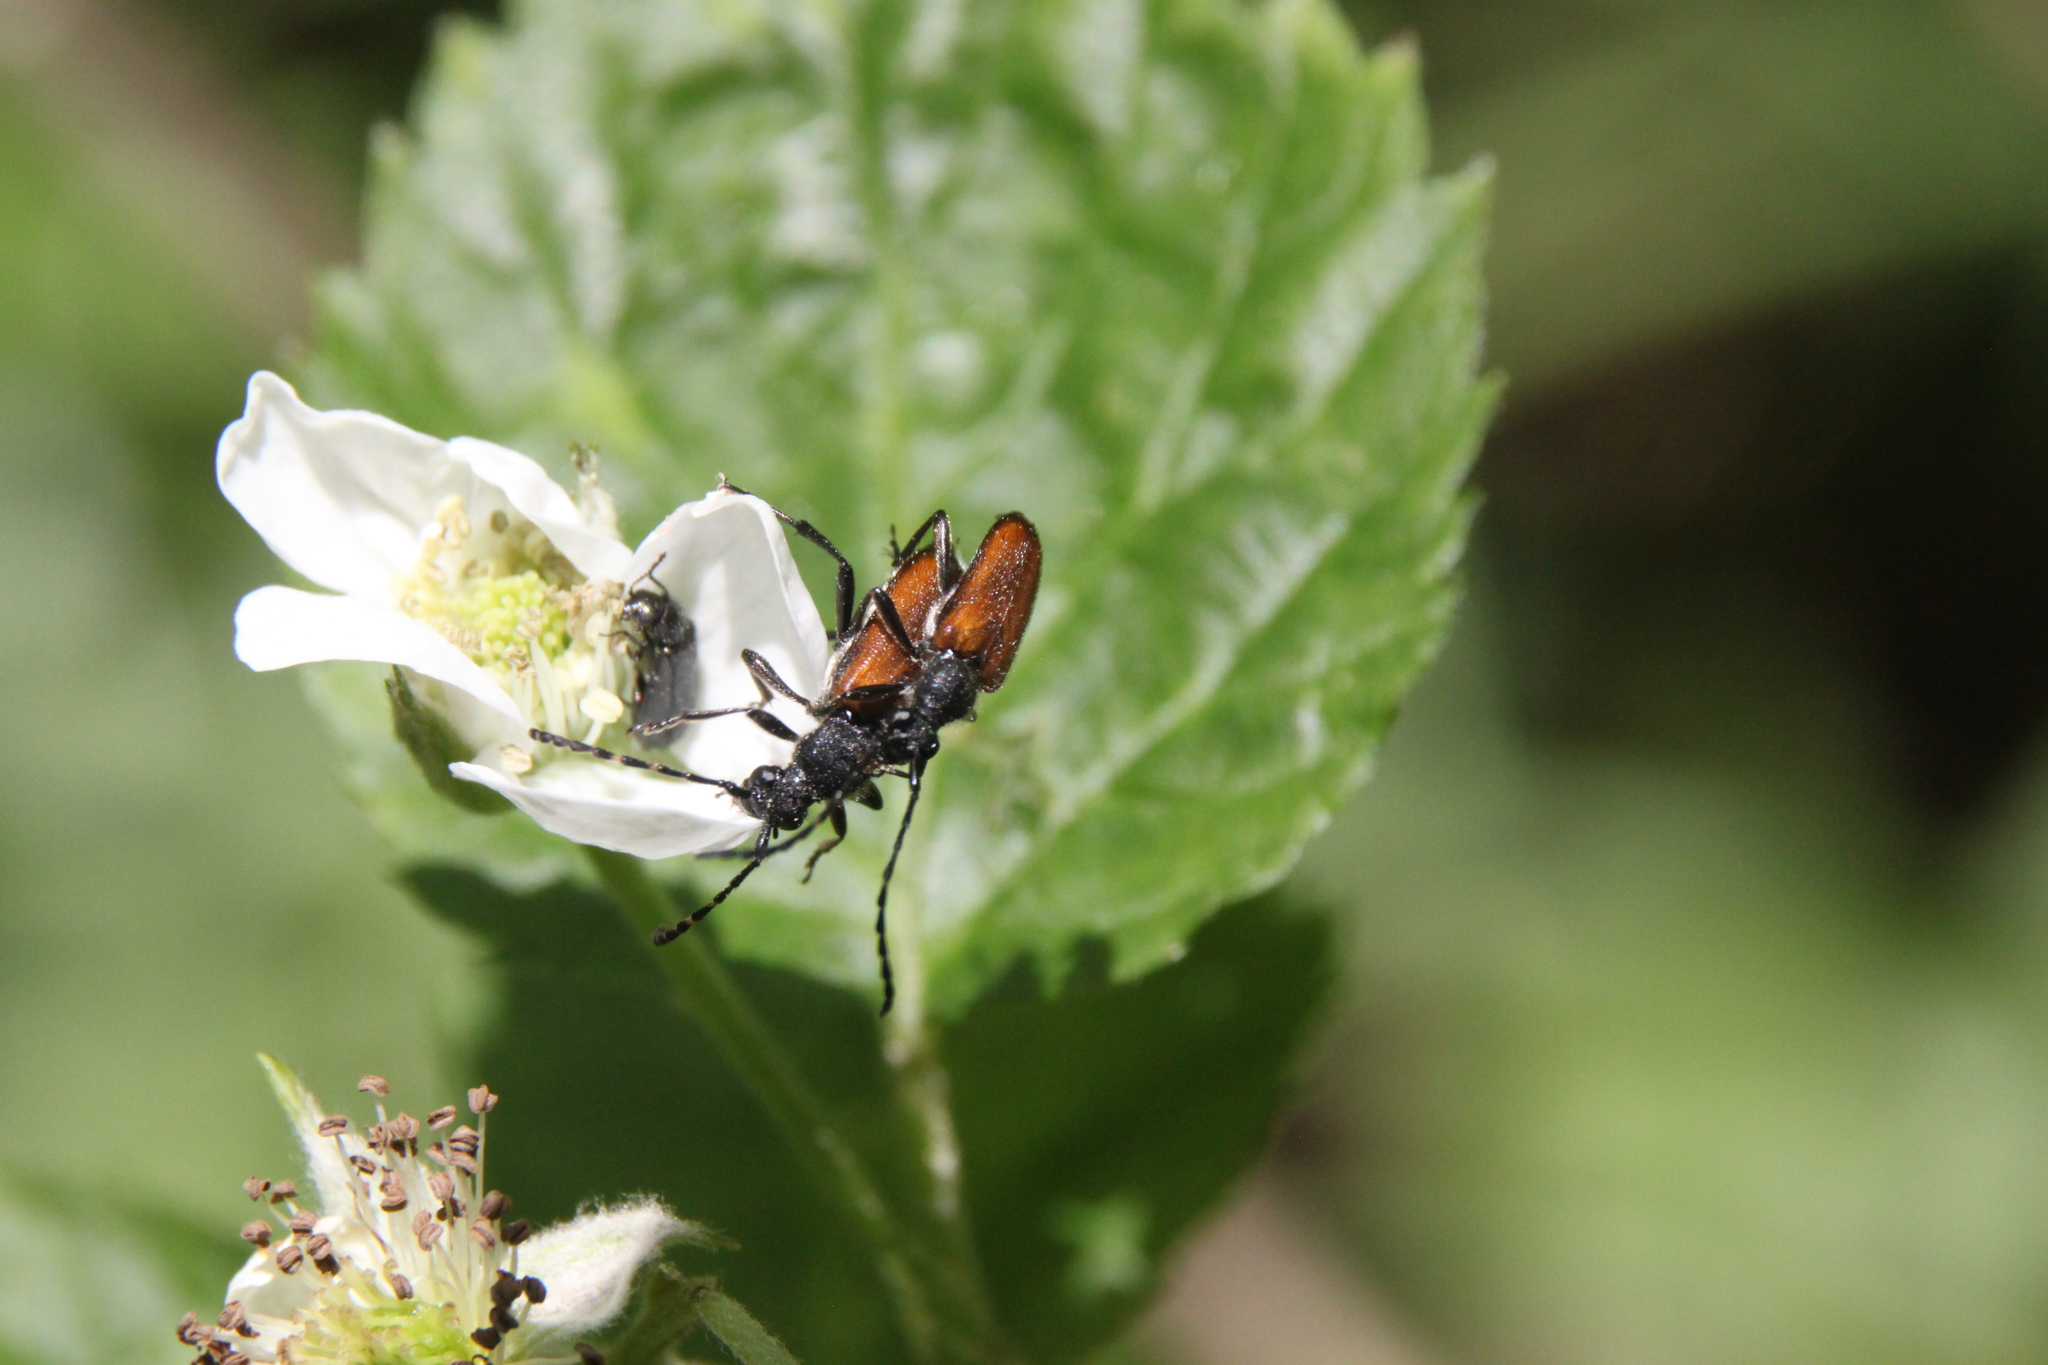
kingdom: Animalia
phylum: Arthropoda
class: Insecta
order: Coleoptera
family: Cerambycidae
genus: Paracorymbia
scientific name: Paracorymbia maculicornis
